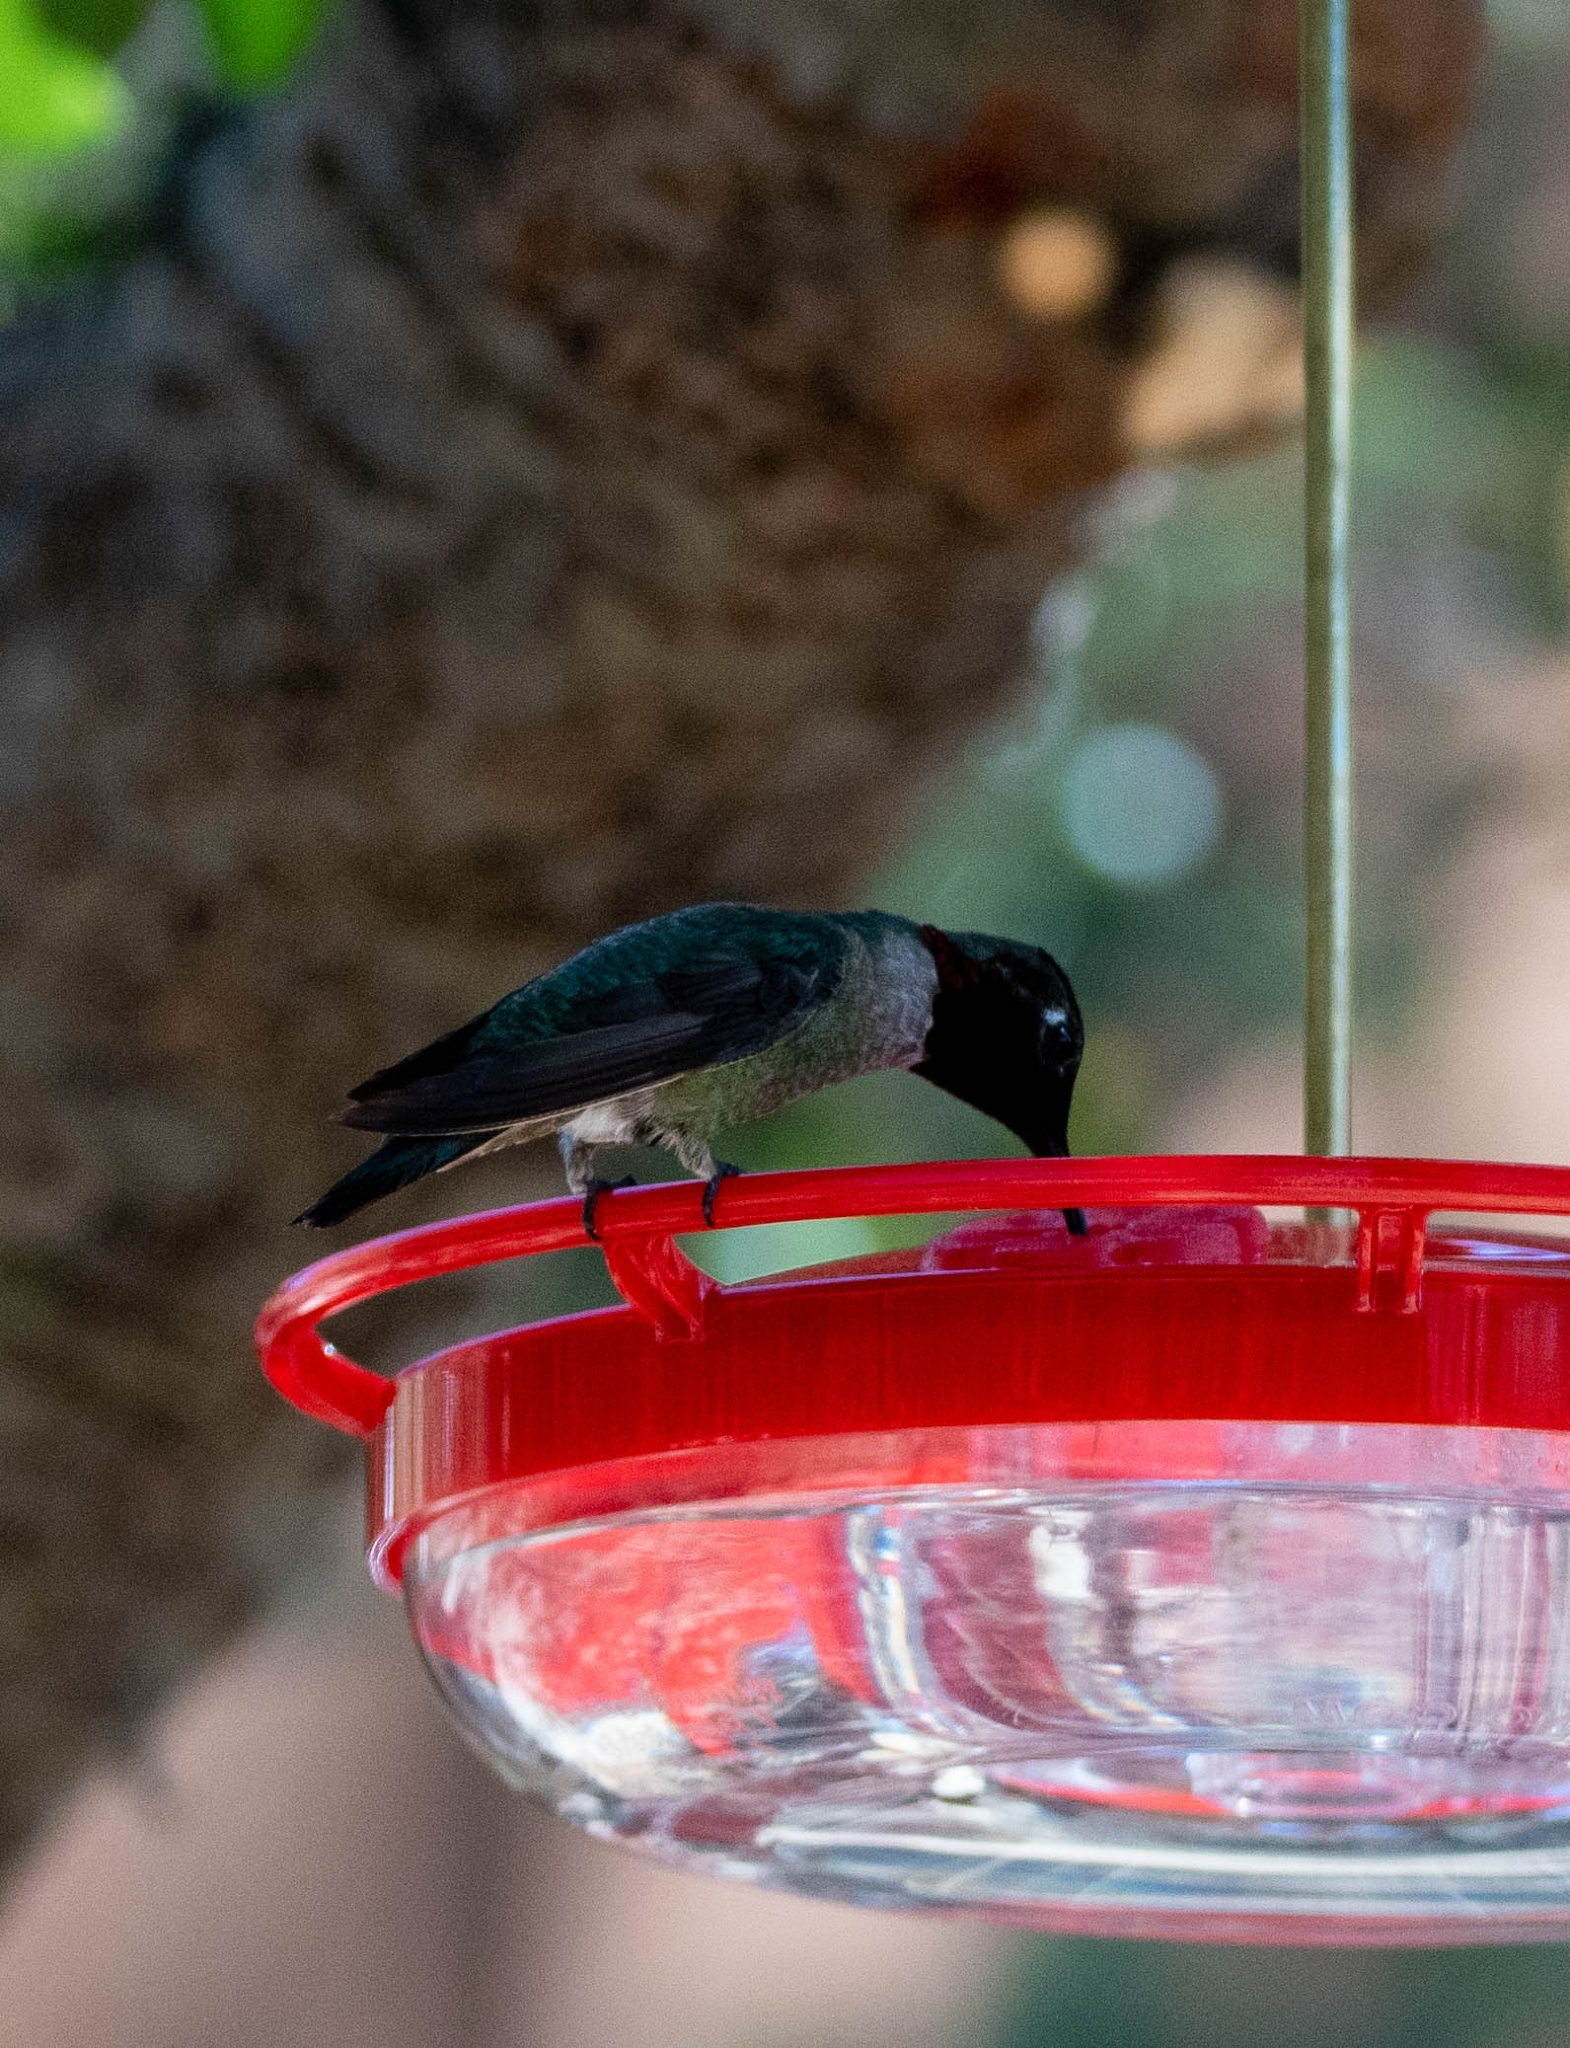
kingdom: Animalia
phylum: Chordata
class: Aves
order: Apodiformes
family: Trochilidae
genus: Calypte
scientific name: Calypte anna
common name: Anna's hummingbird
